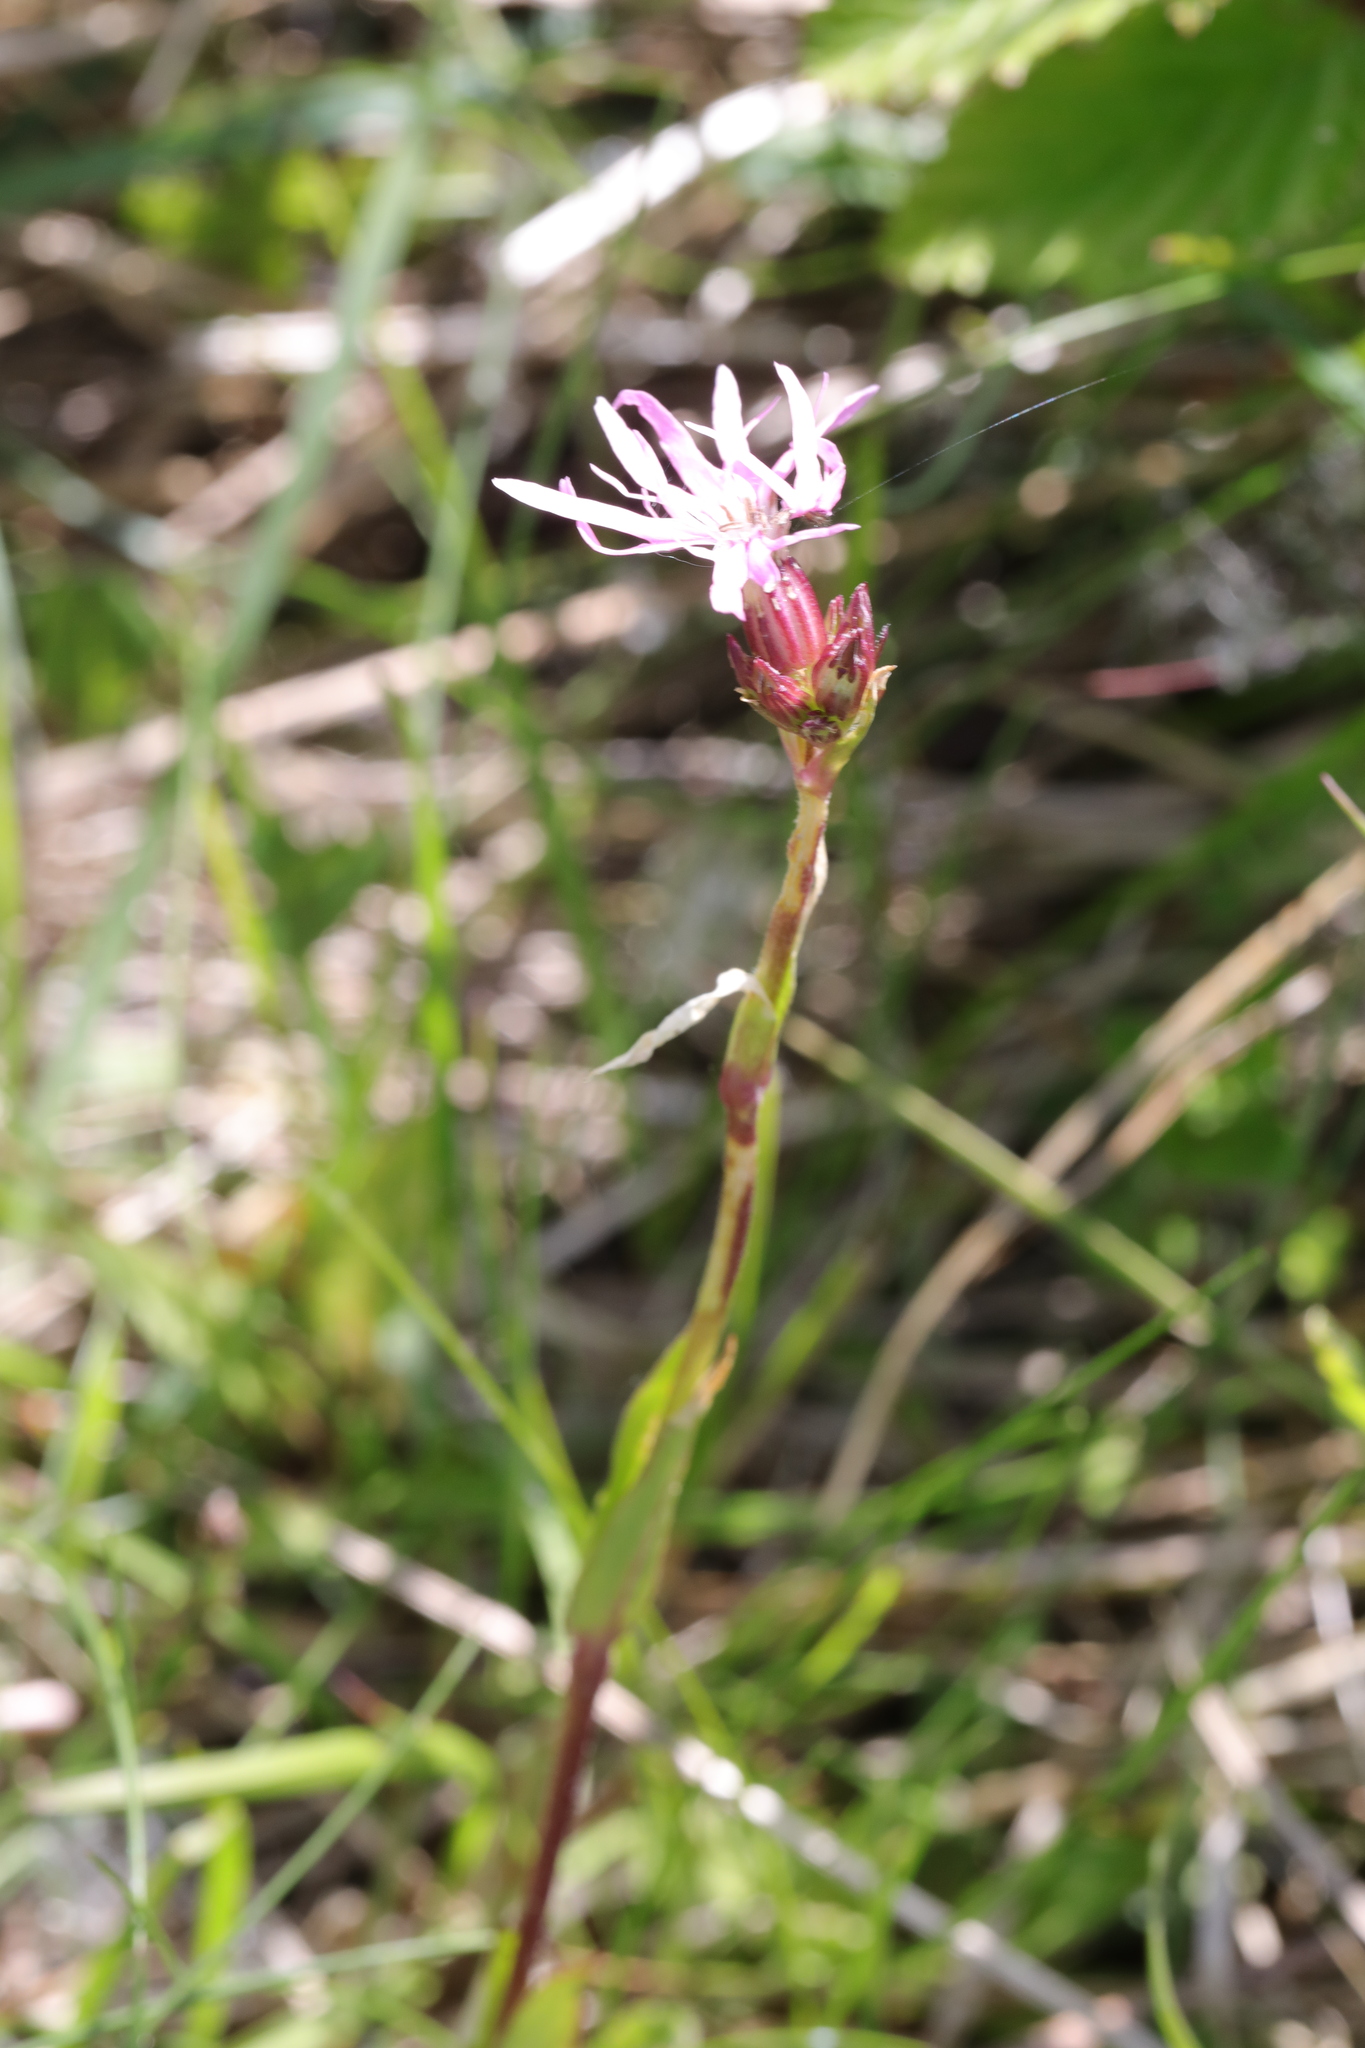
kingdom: Plantae
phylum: Tracheophyta
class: Magnoliopsida
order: Caryophyllales
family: Caryophyllaceae
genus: Silene
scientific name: Silene flos-cuculi
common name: Ragged-robin
